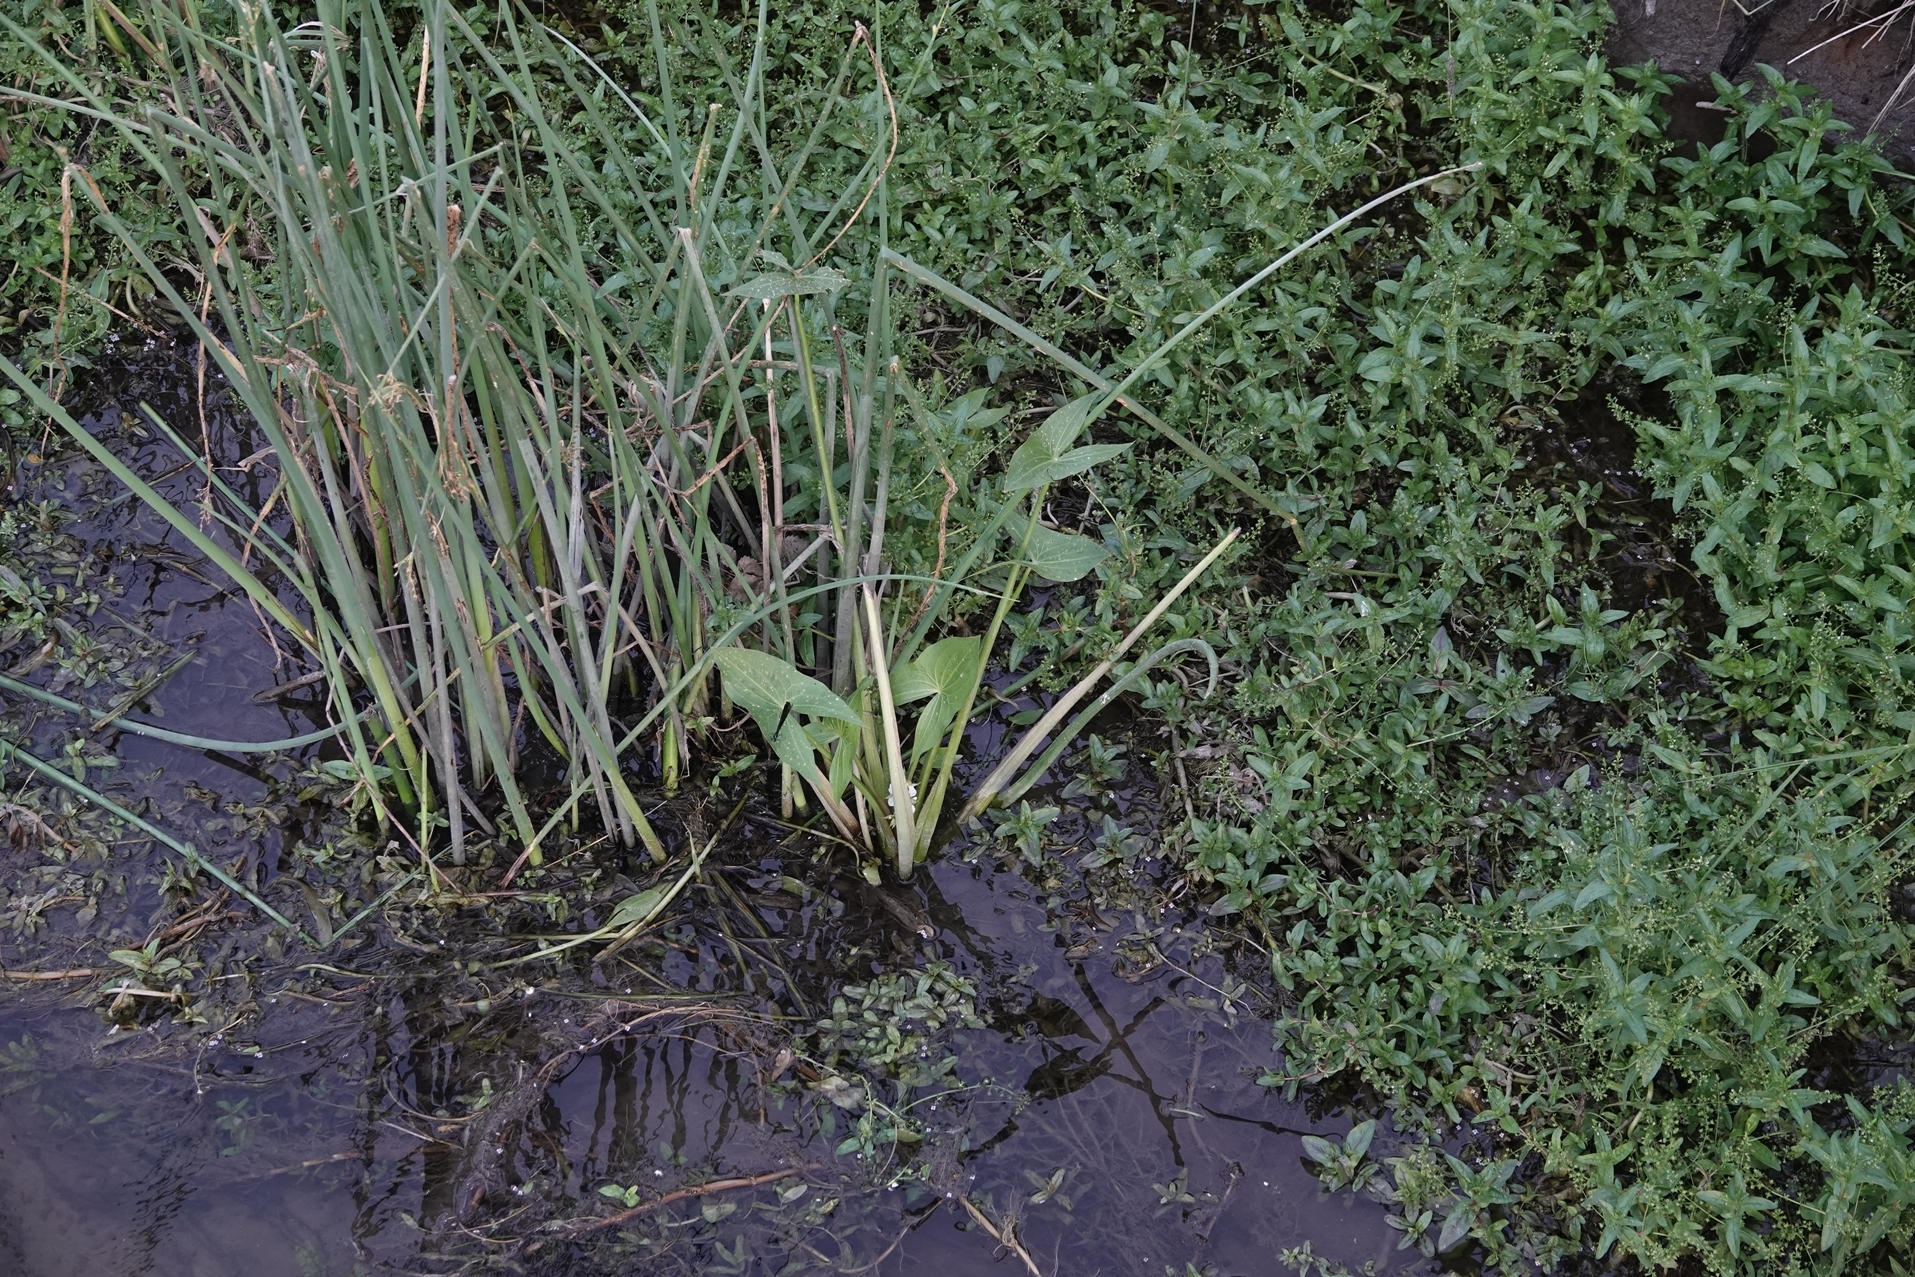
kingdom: Plantae
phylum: Tracheophyta
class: Liliopsida
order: Alismatales
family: Alismataceae
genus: Sagittaria
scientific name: Sagittaria cuneata
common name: Northern arrowhead
